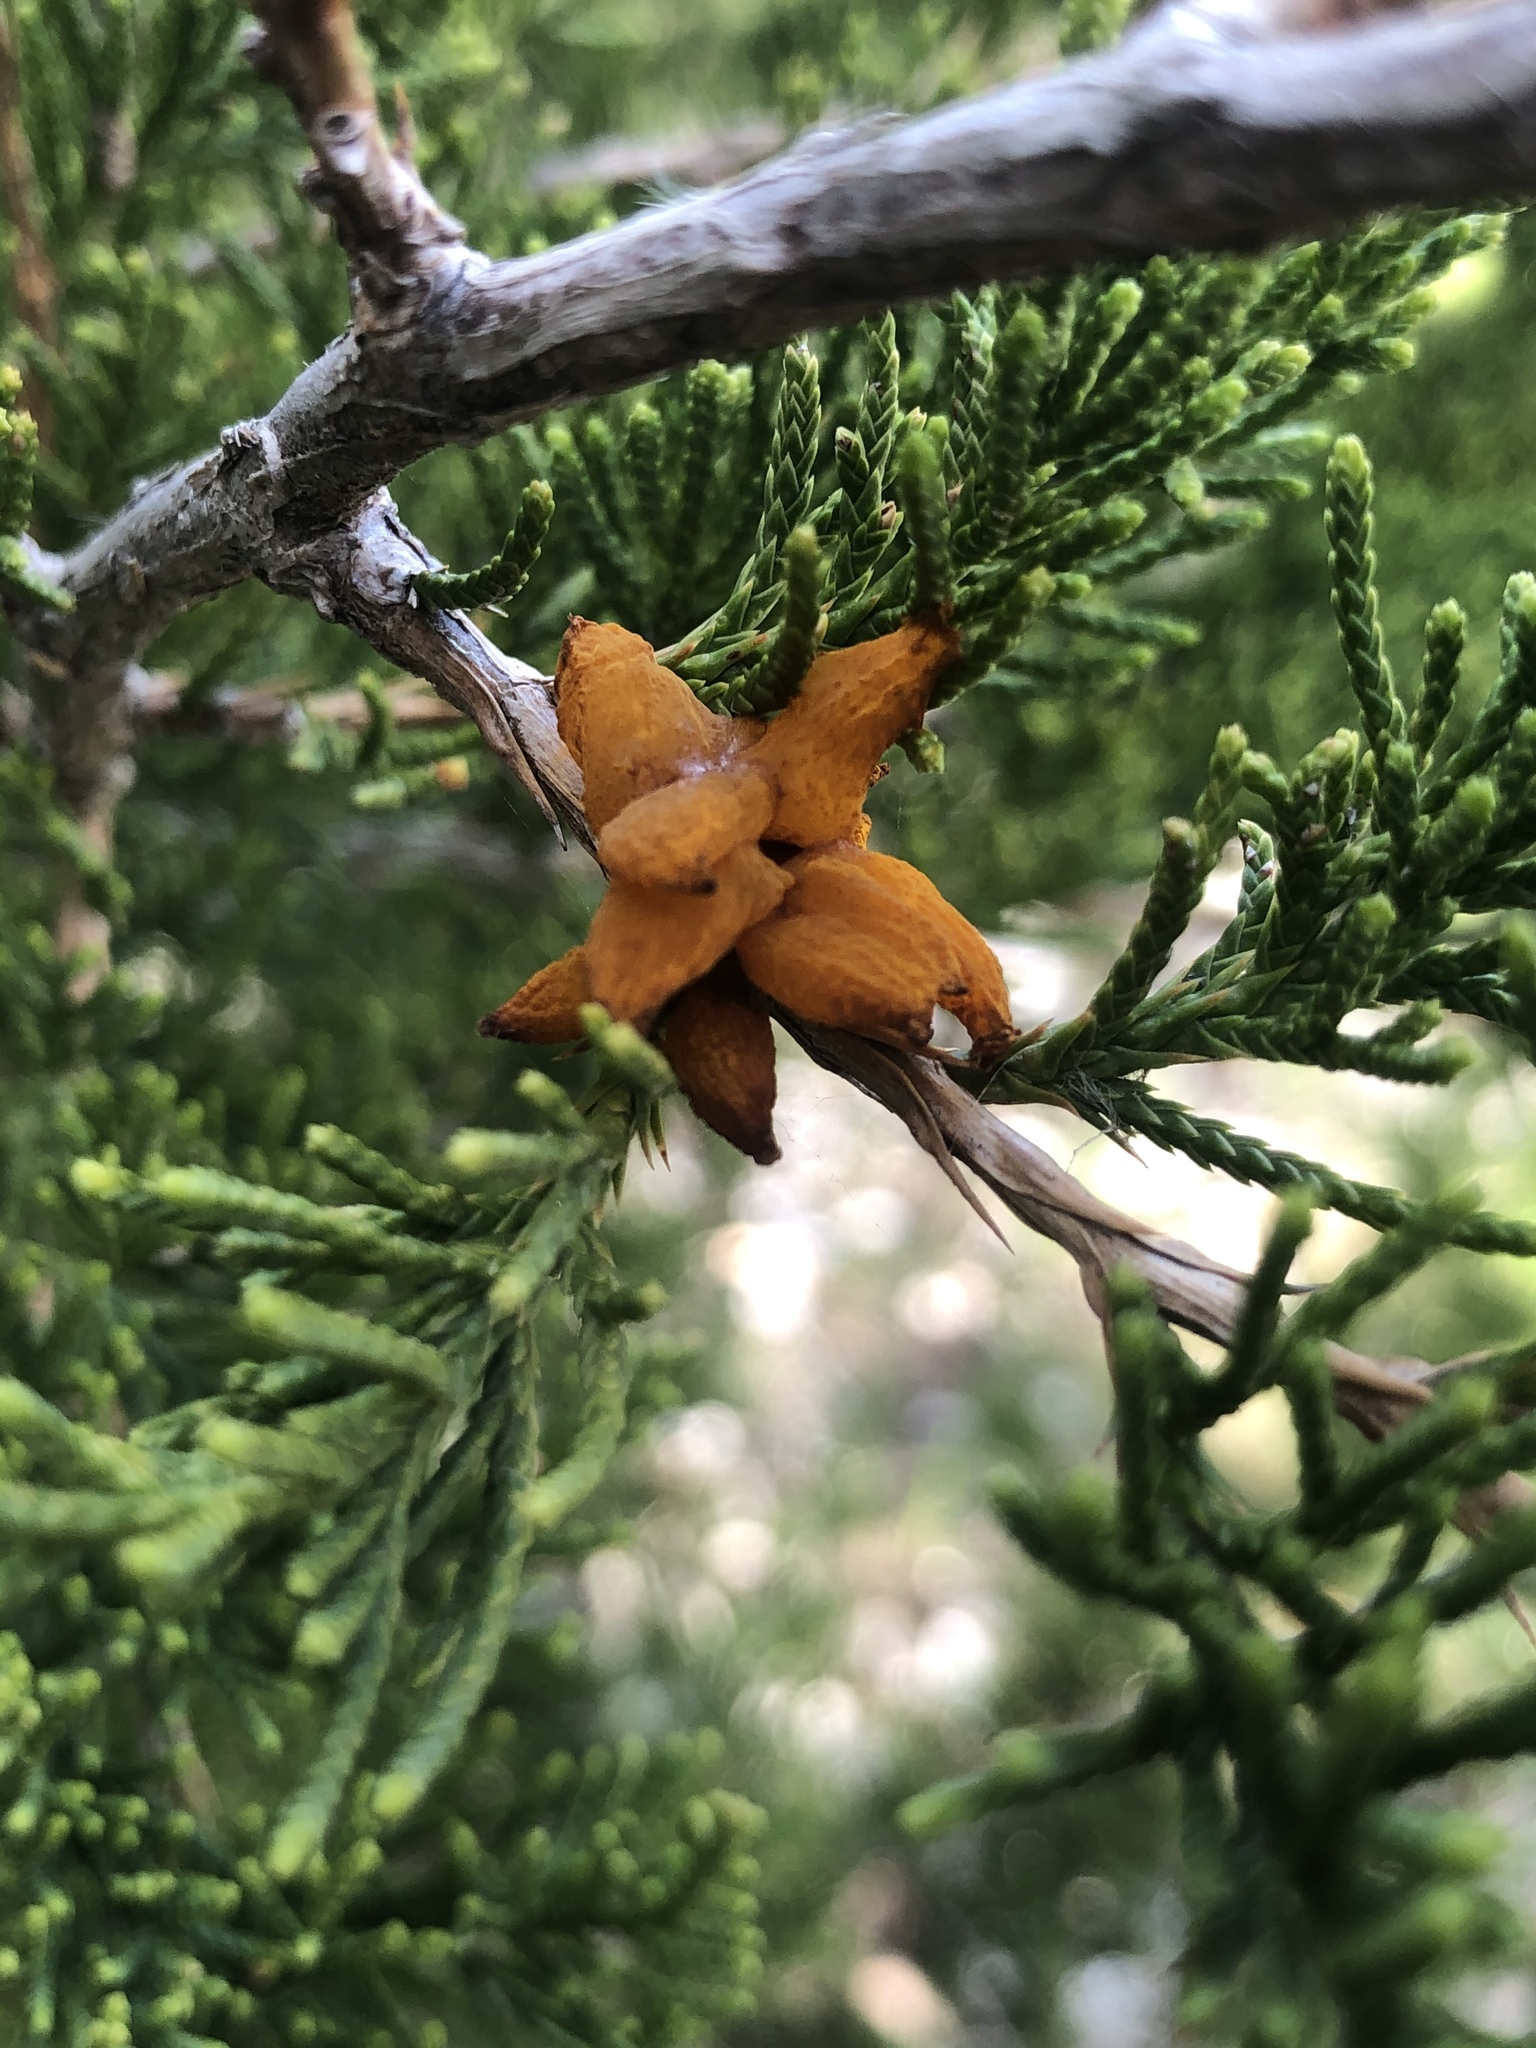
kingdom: Fungi
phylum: Basidiomycota
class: Pucciniomycetes
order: Pucciniales
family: Gymnosporangiaceae
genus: Gymnosporangium
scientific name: Gymnosporangium juniperi-virginianae
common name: Juniper-apple rust
